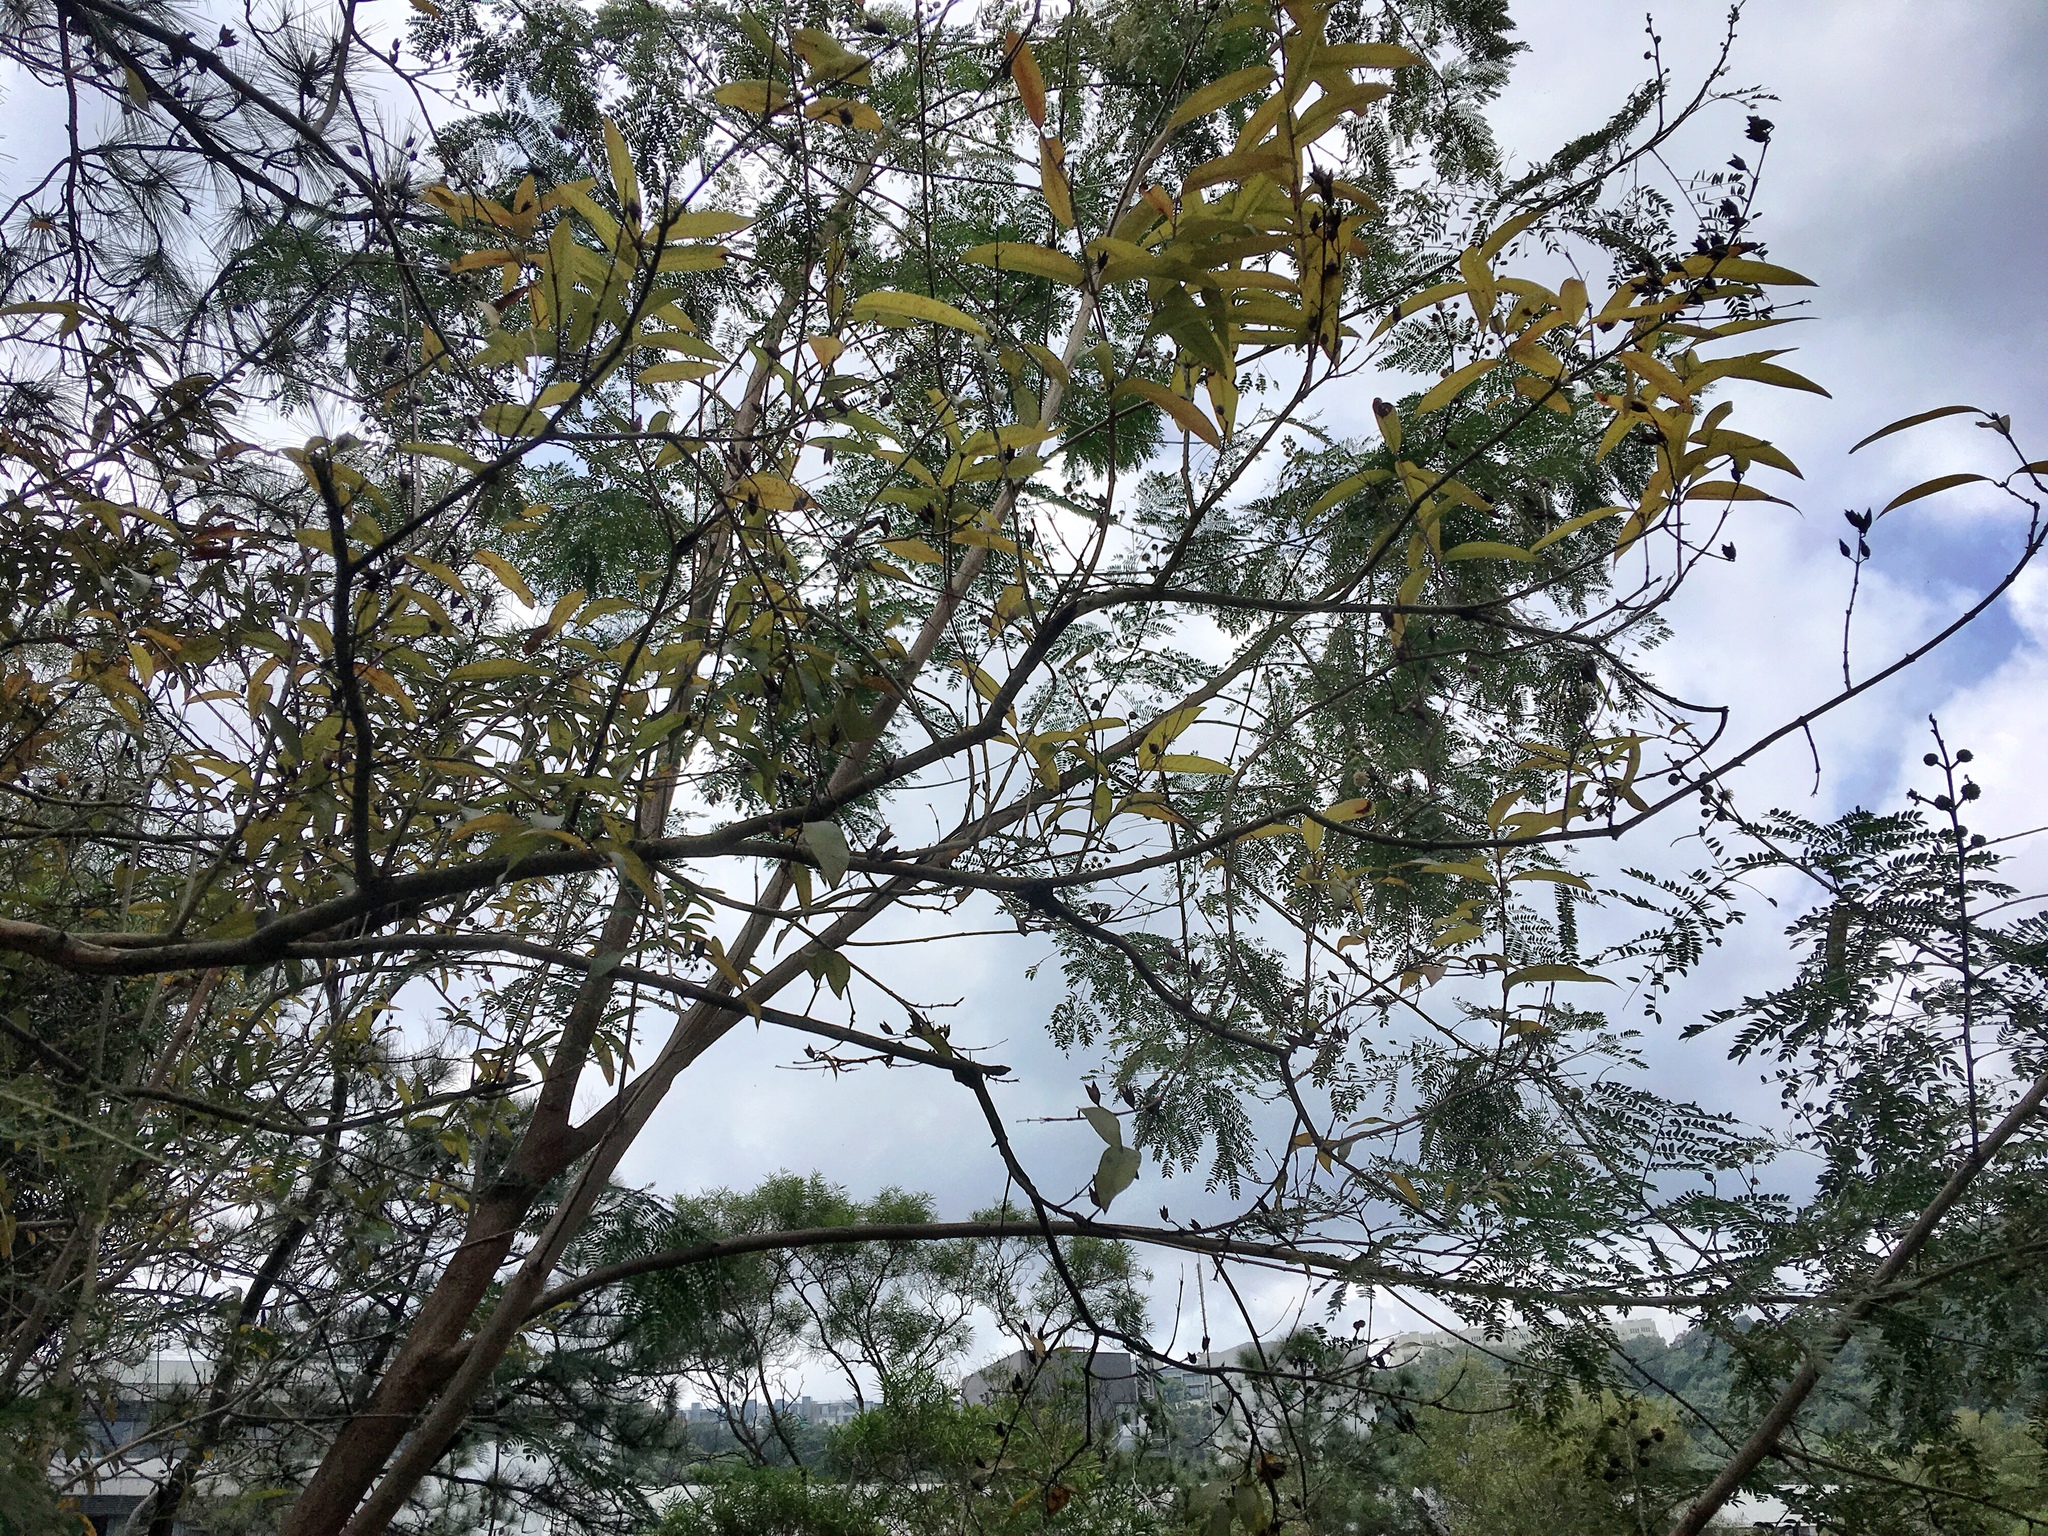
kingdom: Plantae
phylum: Tracheophyta
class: Magnoliopsida
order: Malpighiales
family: Hypericaceae
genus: Cratoxylum
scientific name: Cratoxylum cochinchinense
